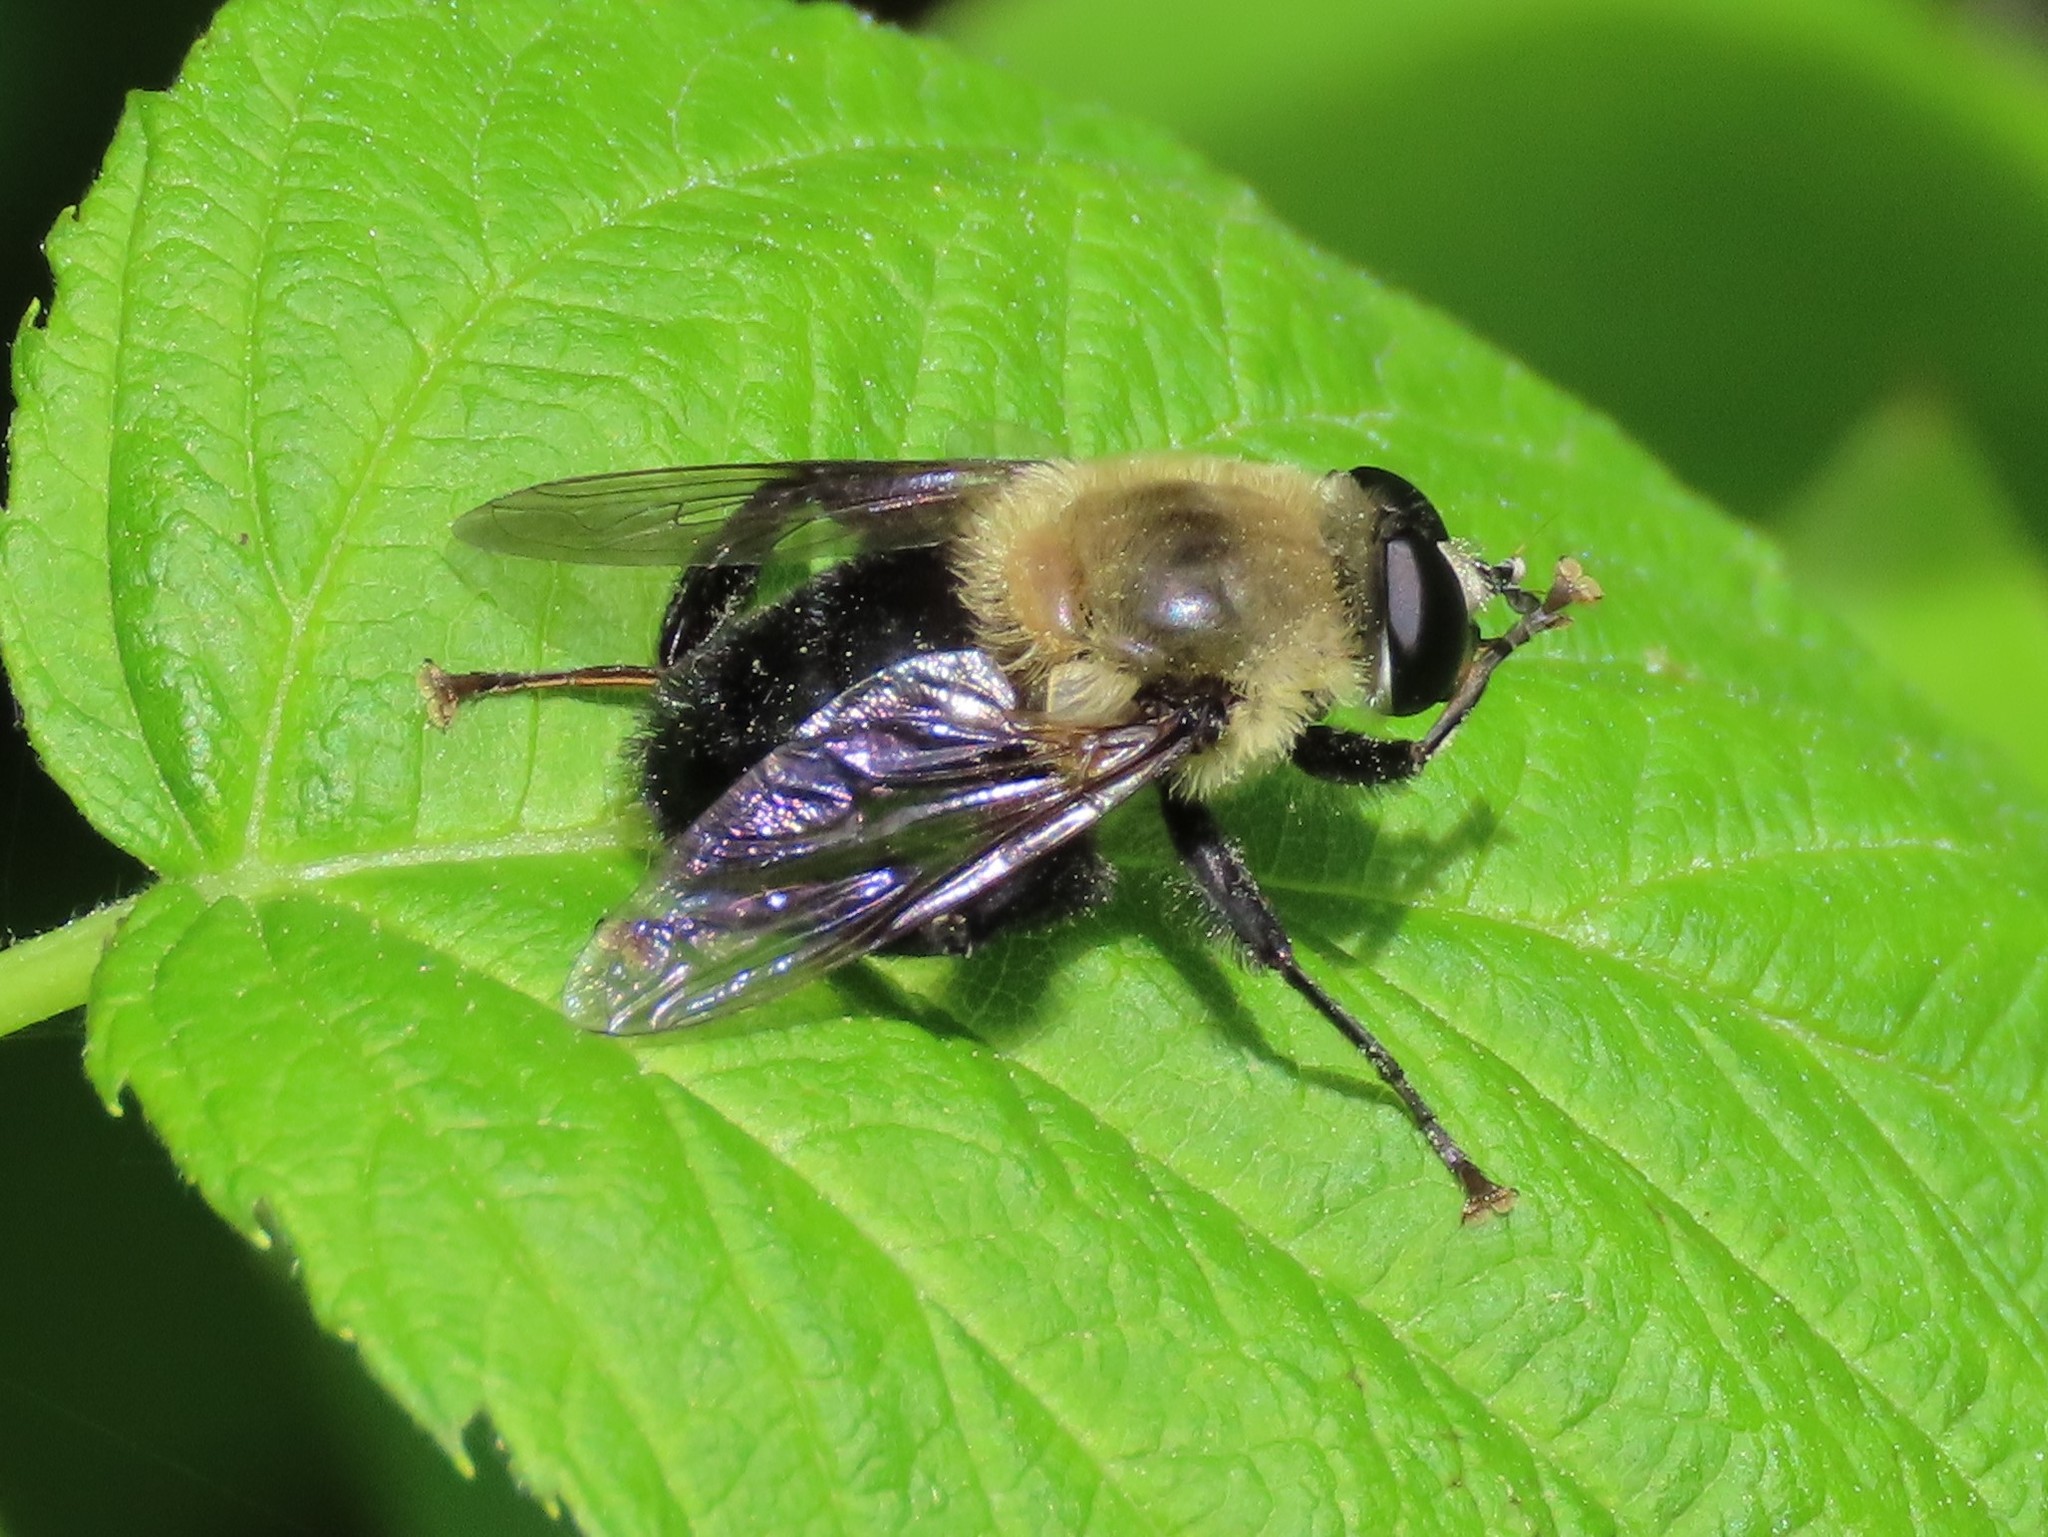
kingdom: Animalia
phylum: Arthropoda
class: Insecta
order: Diptera
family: Syrphidae
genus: Imatisma
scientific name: Imatisma bautias
